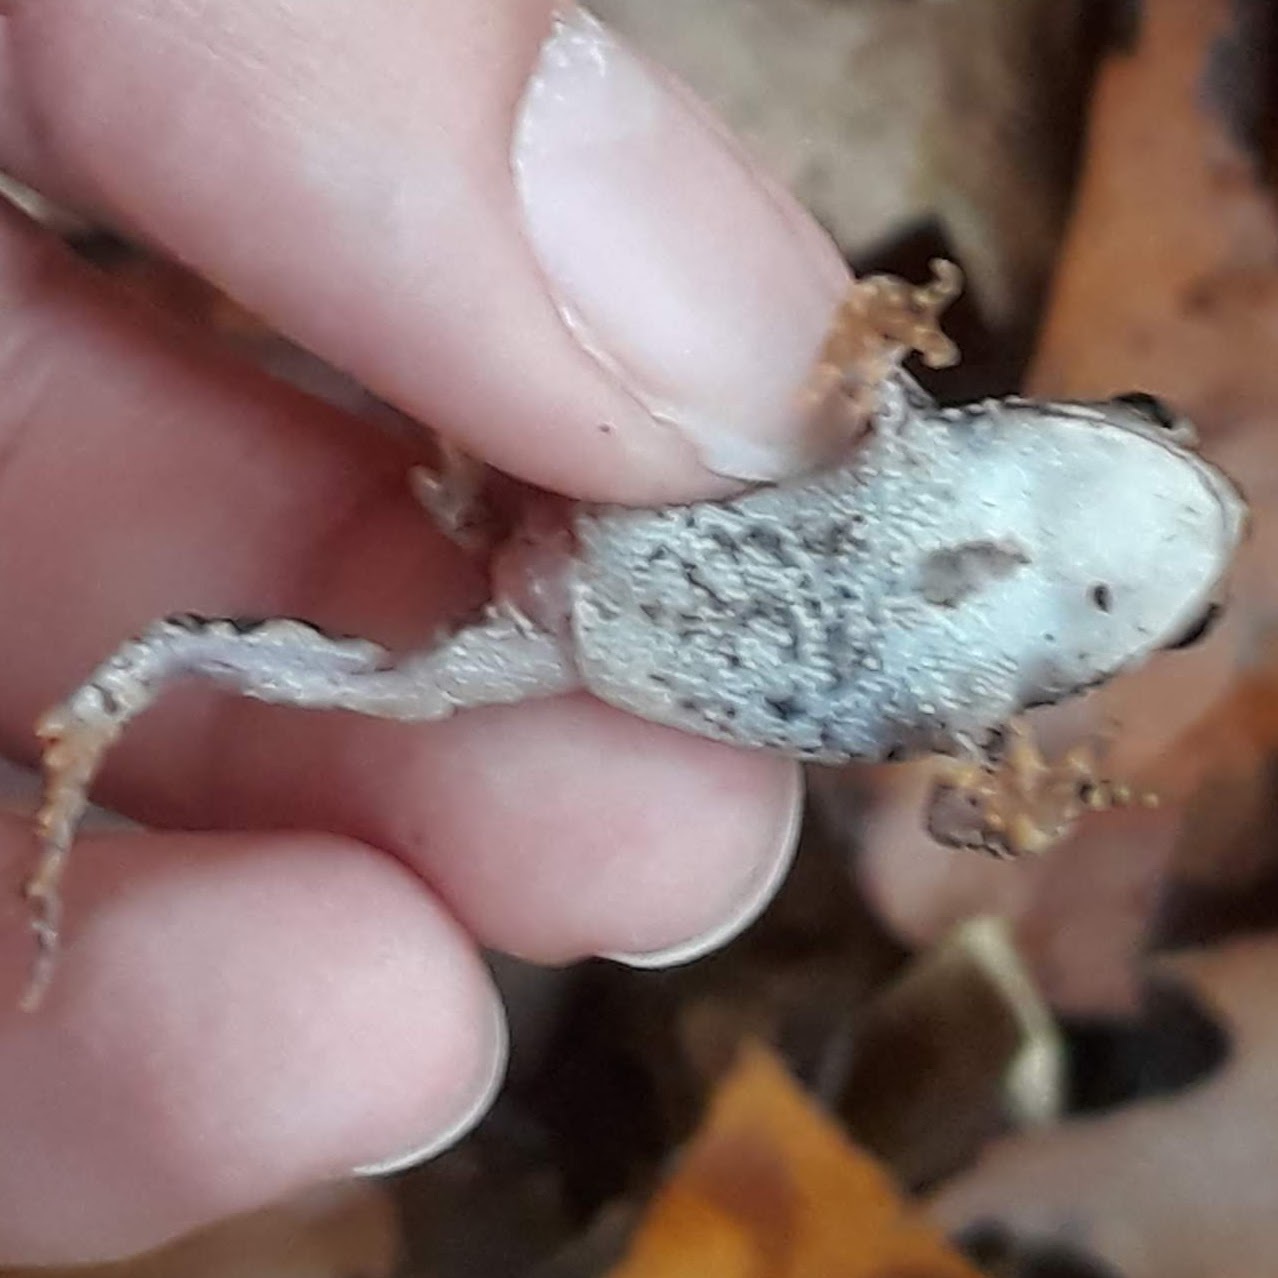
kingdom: Animalia
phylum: Chordata
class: Amphibia
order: Anura
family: Bufonidae
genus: Anaxyrus
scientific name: Anaxyrus americanus
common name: American toad
